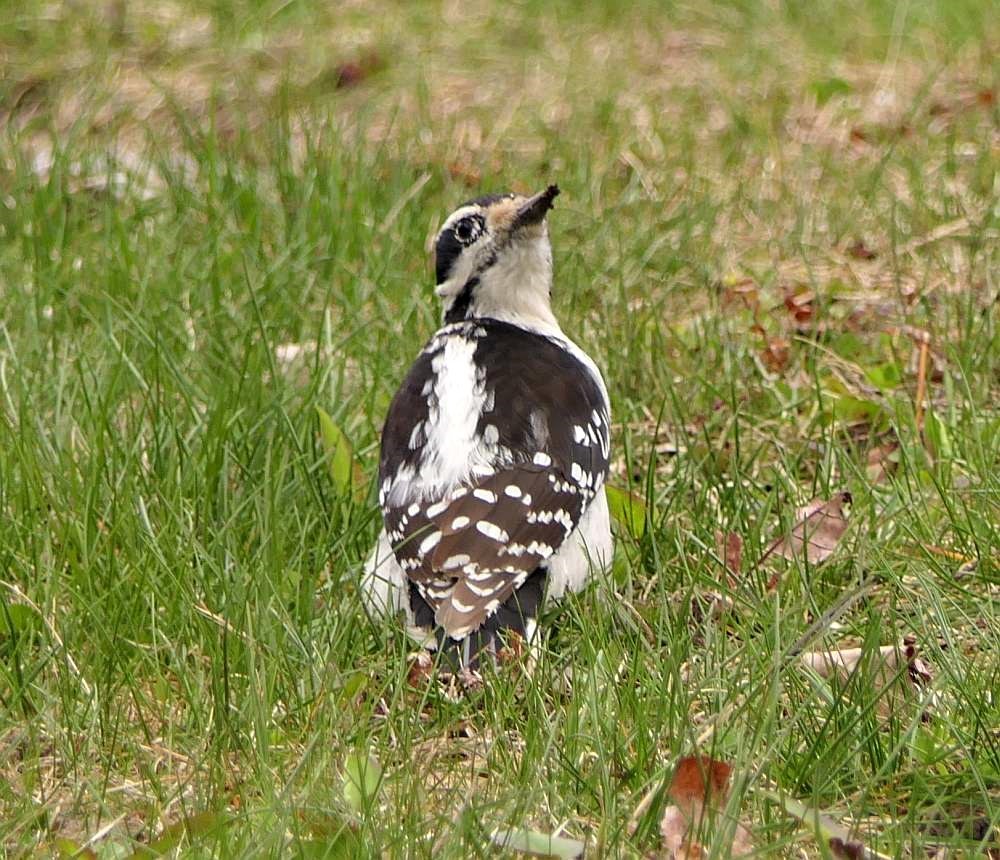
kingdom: Animalia
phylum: Chordata
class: Aves
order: Piciformes
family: Picidae
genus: Leuconotopicus
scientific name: Leuconotopicus villosus
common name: Hairy woodpecker
